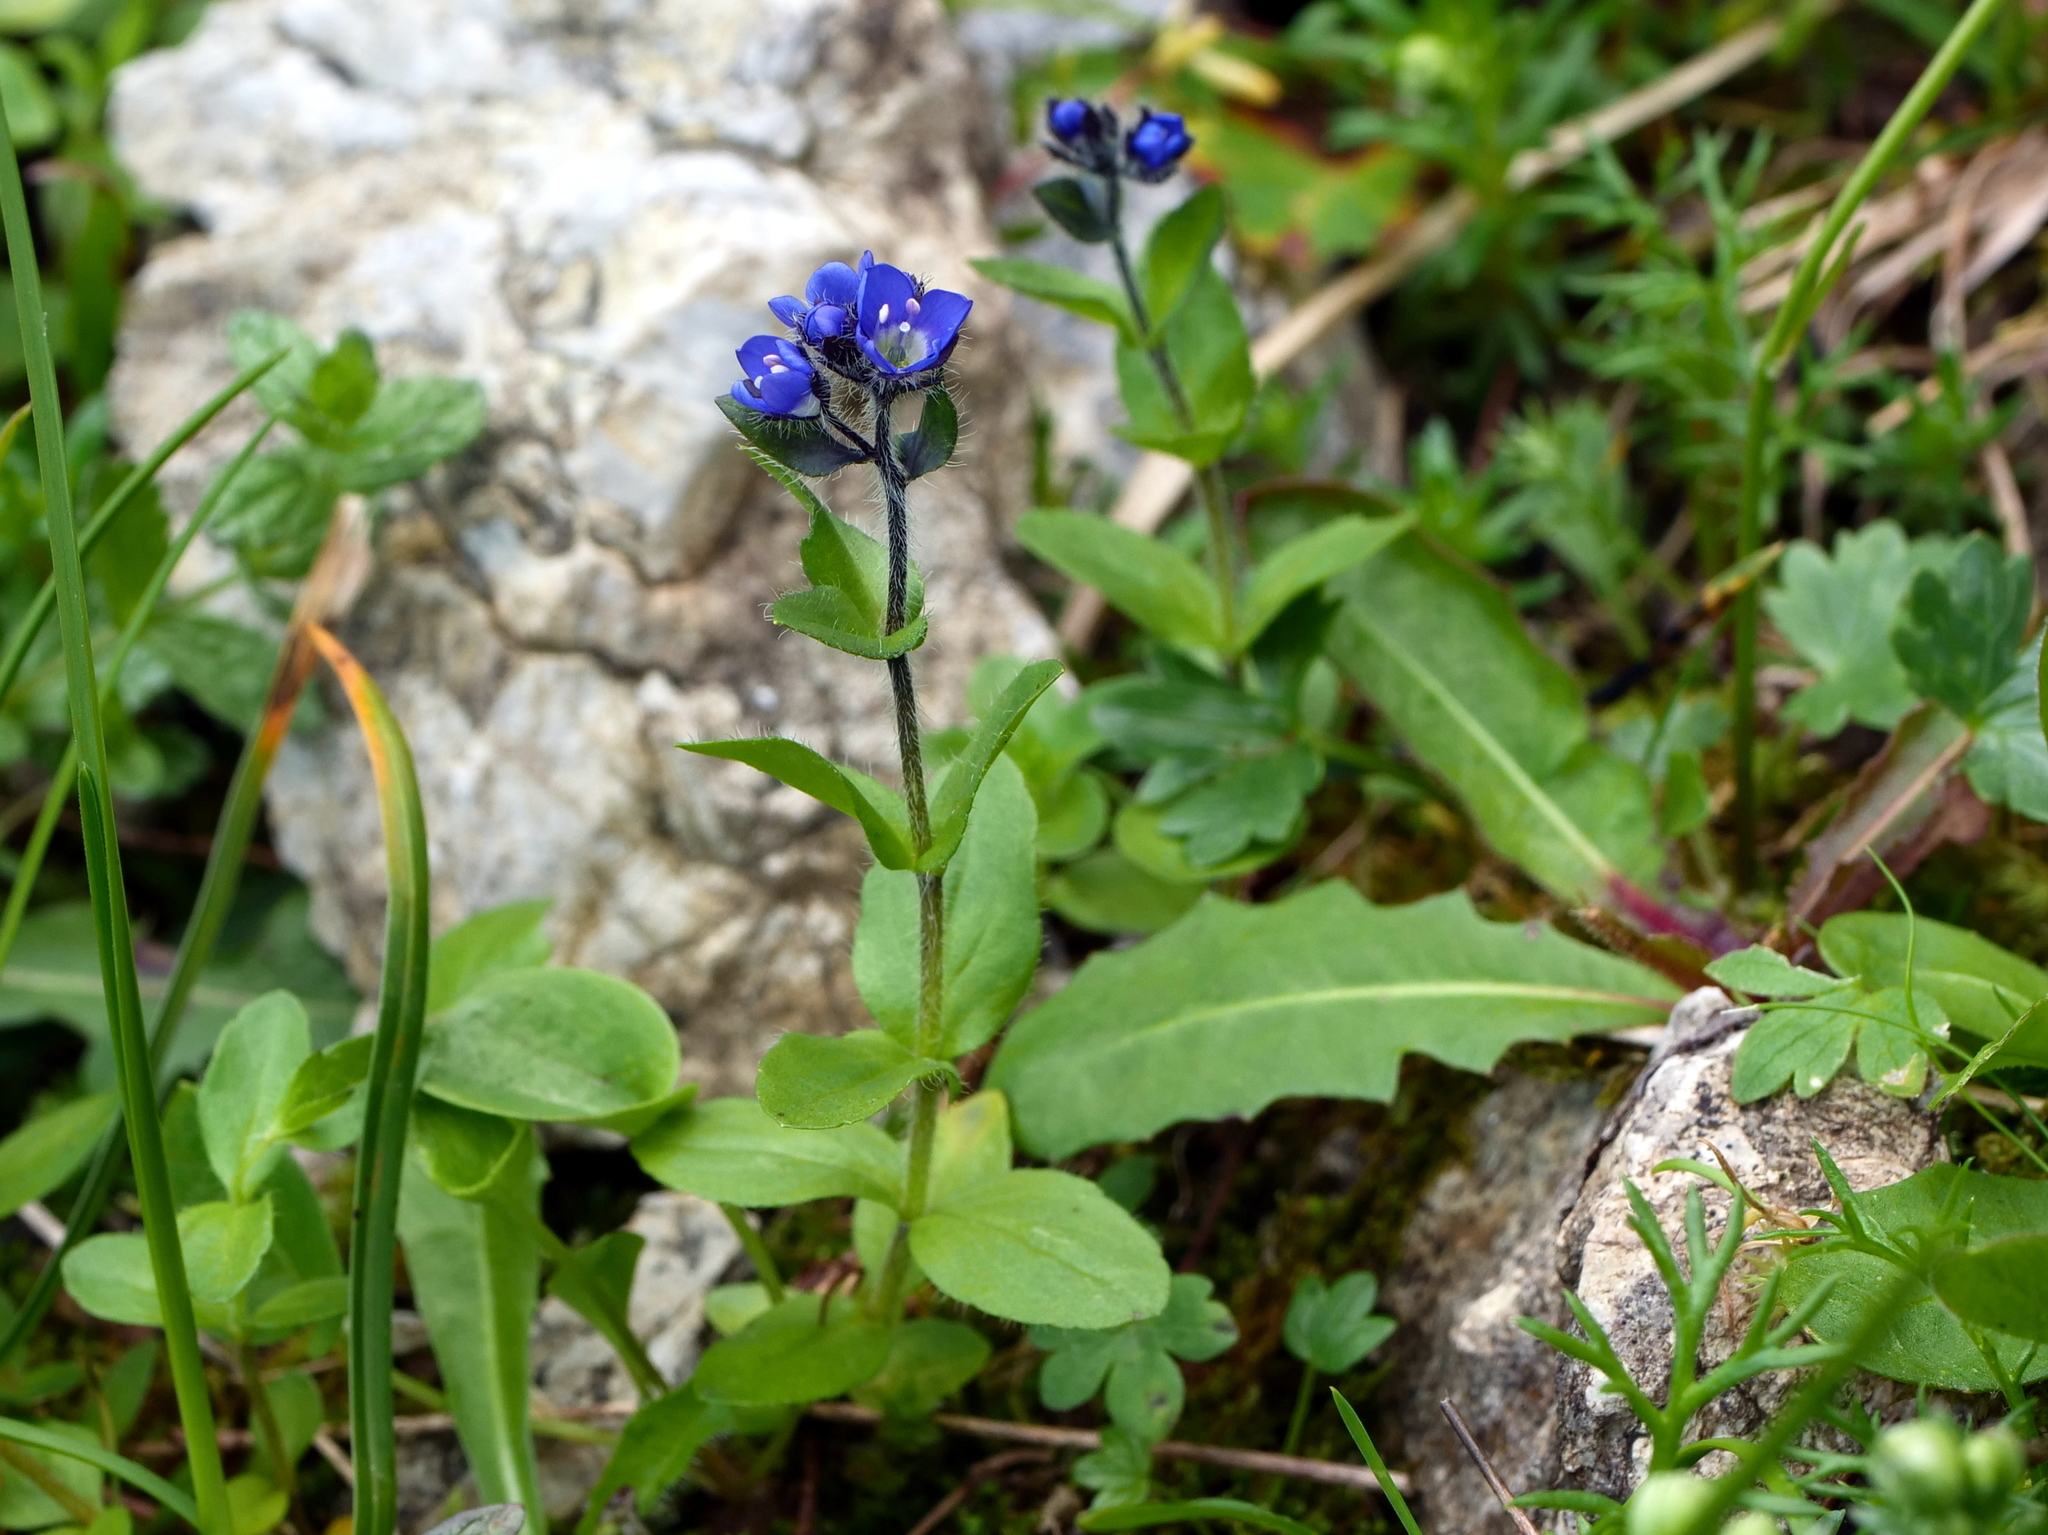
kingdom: Plantae
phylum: Tracheophyta
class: Magnoliopsida
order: Lamiales
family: Plantaginaceae
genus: Veronica
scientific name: Veronica alpina
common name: Alpine speedwell
